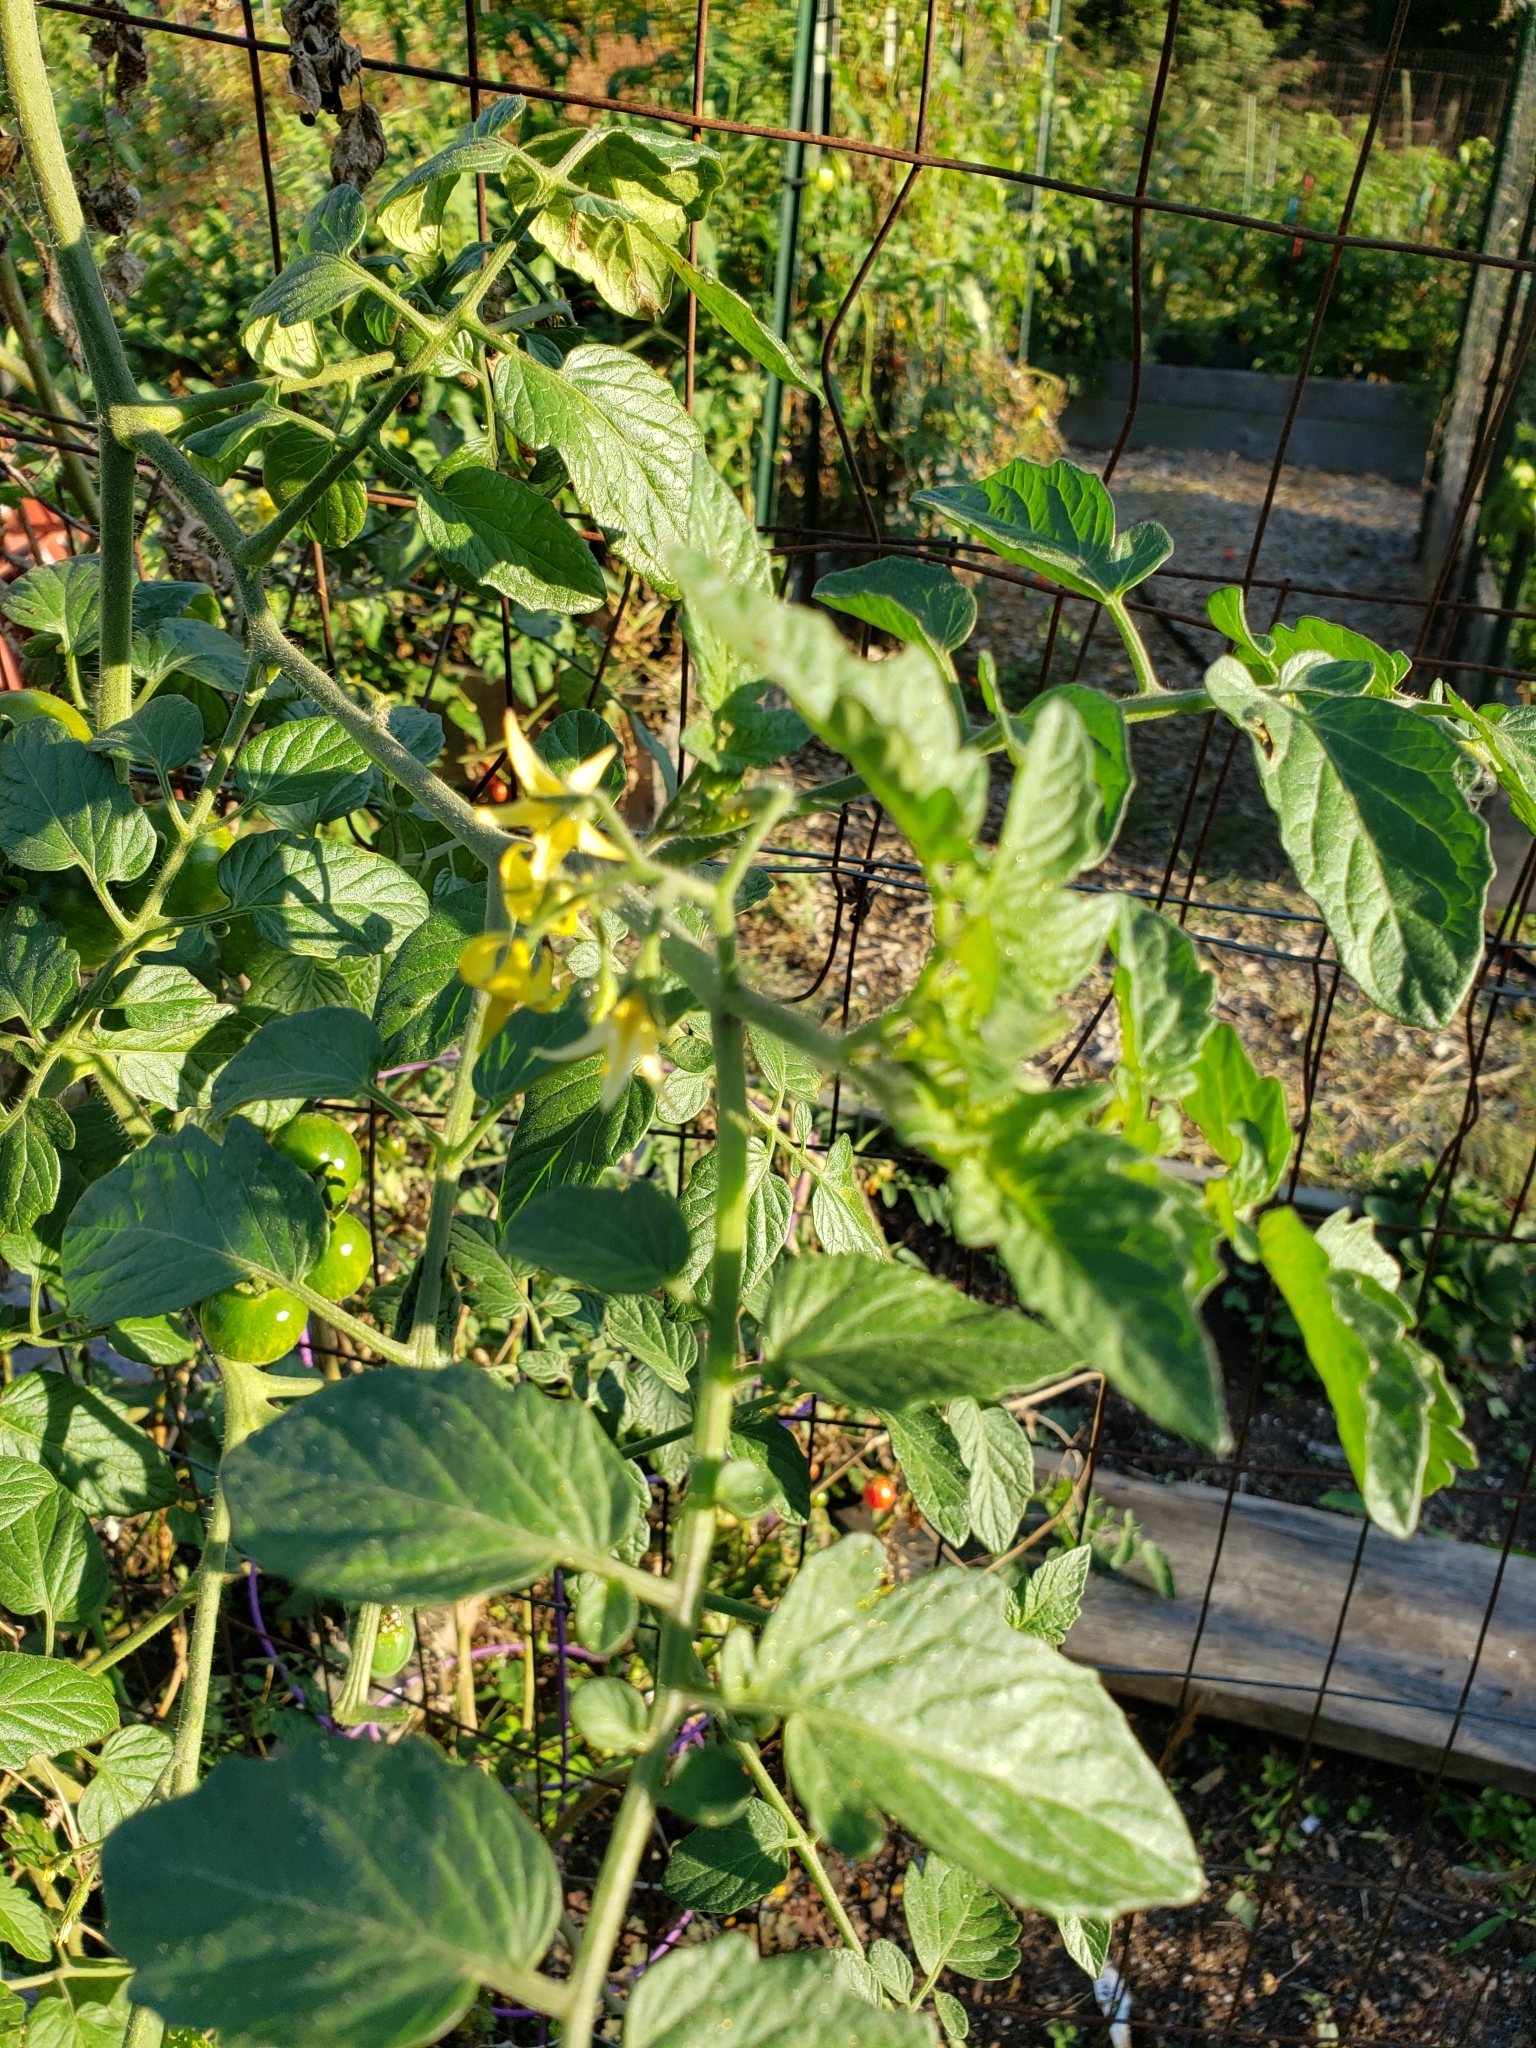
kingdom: Animalia
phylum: Arthropoda
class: Insecta
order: Lepidoptera
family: Crambidae
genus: Desmia
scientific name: Desmia funeralis
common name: Grape leaf folder moth
